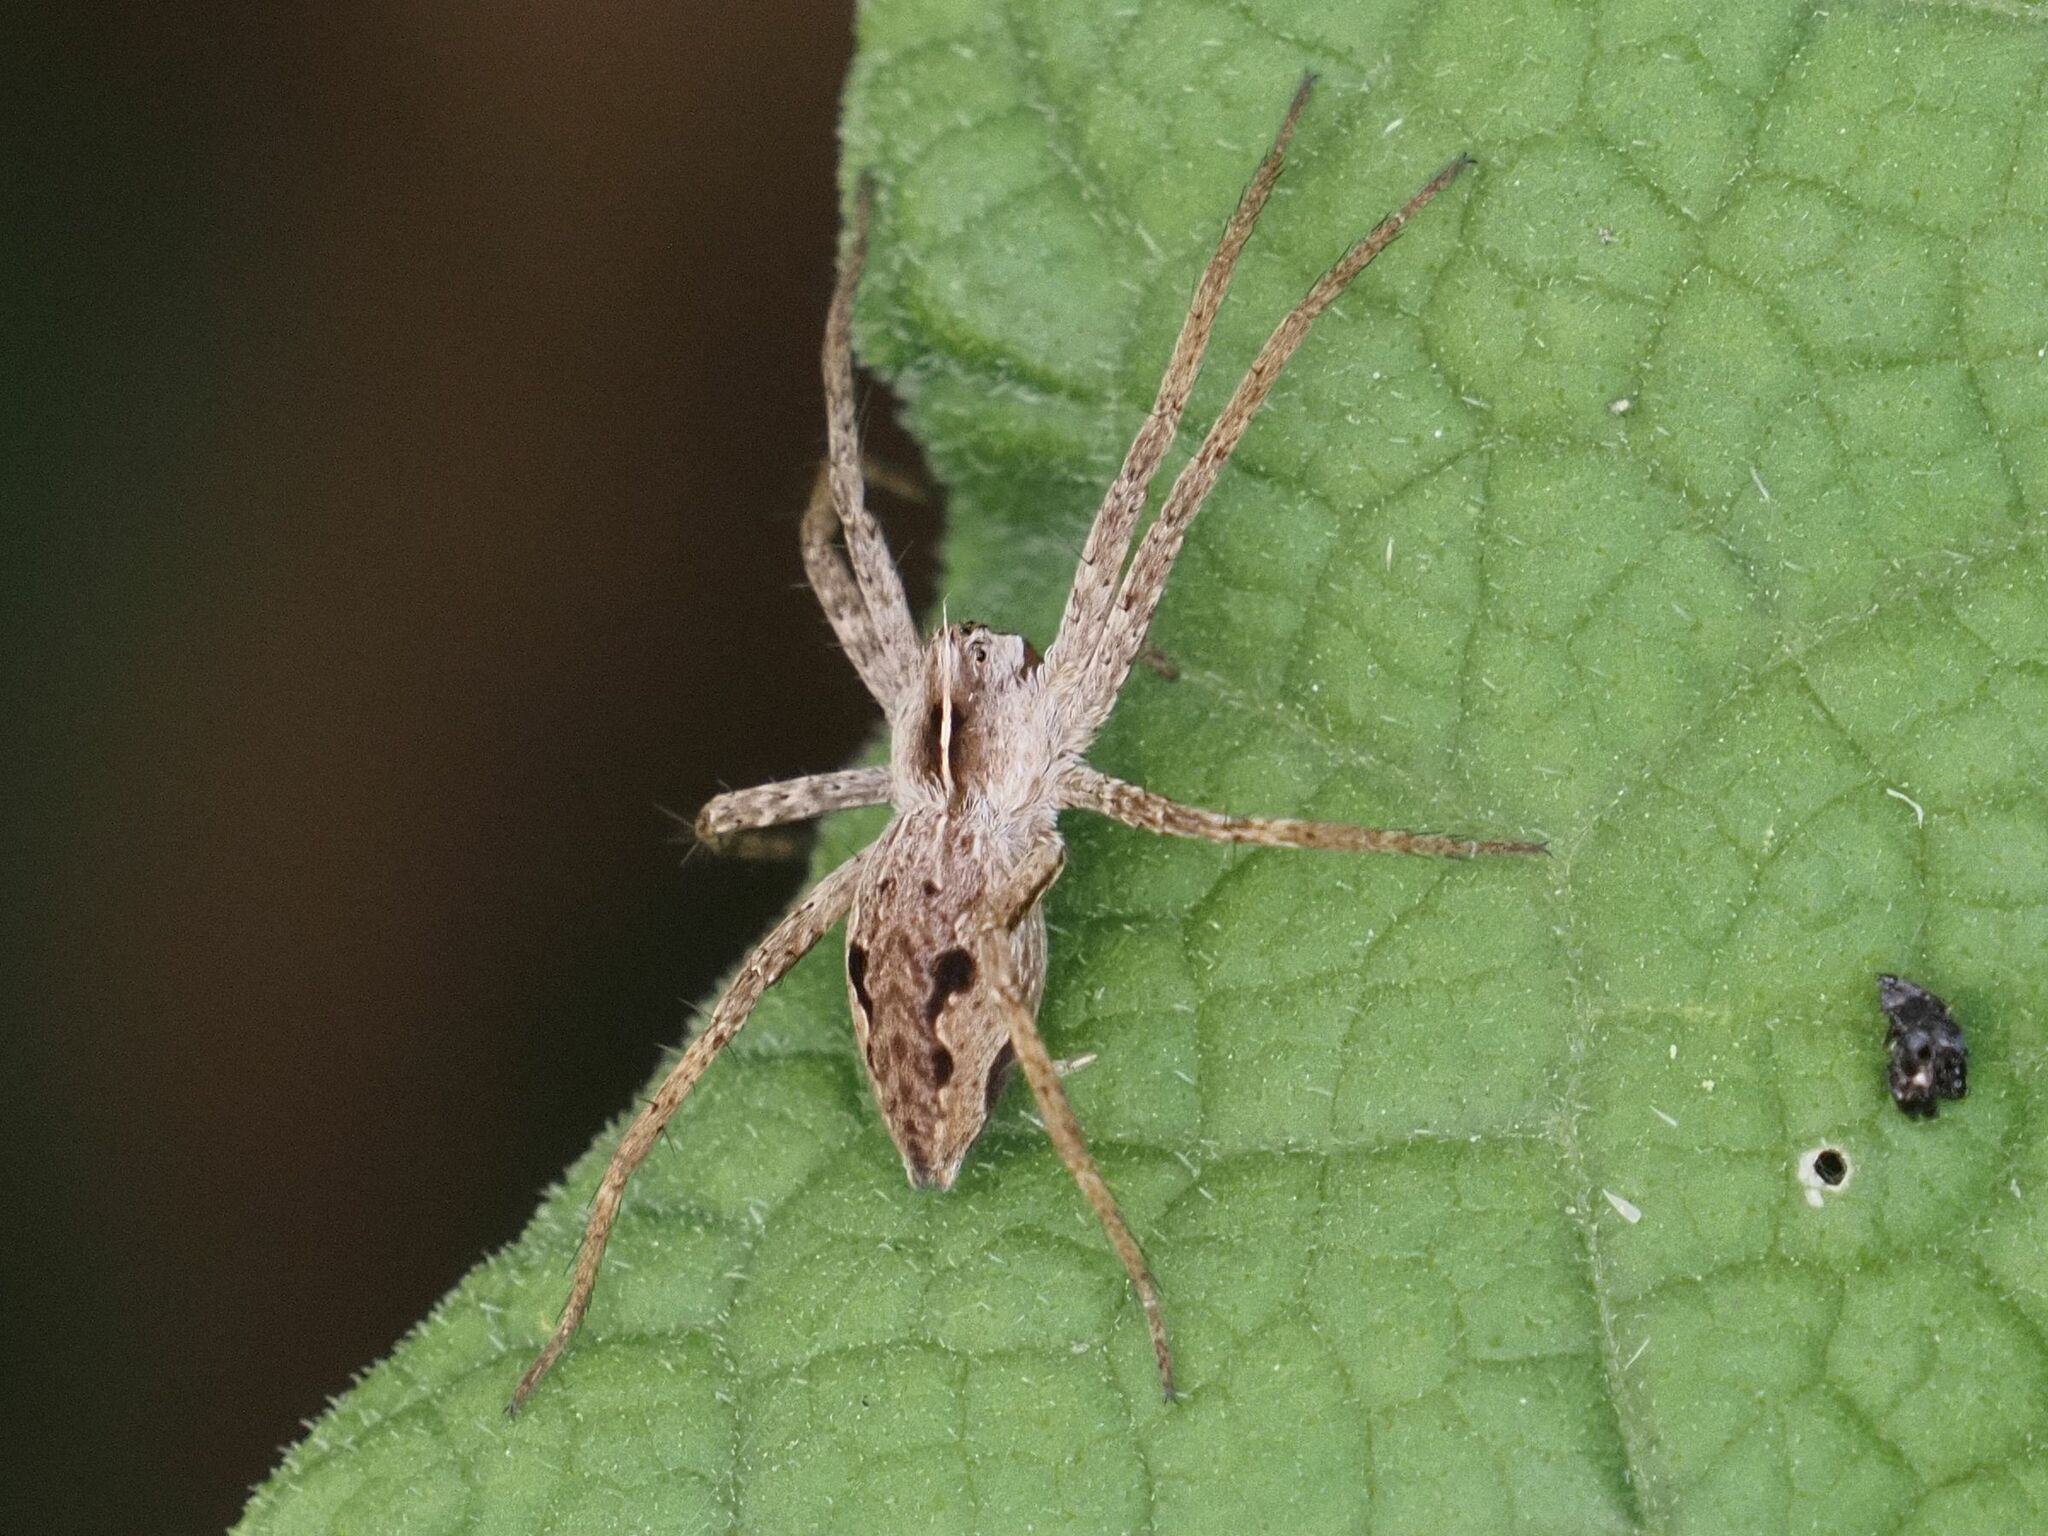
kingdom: Animalia
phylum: Arthropoda
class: Arachnida
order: Araneae
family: Pisauridae
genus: Pisaura
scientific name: Pisaura mirabilis
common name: Tent spider
